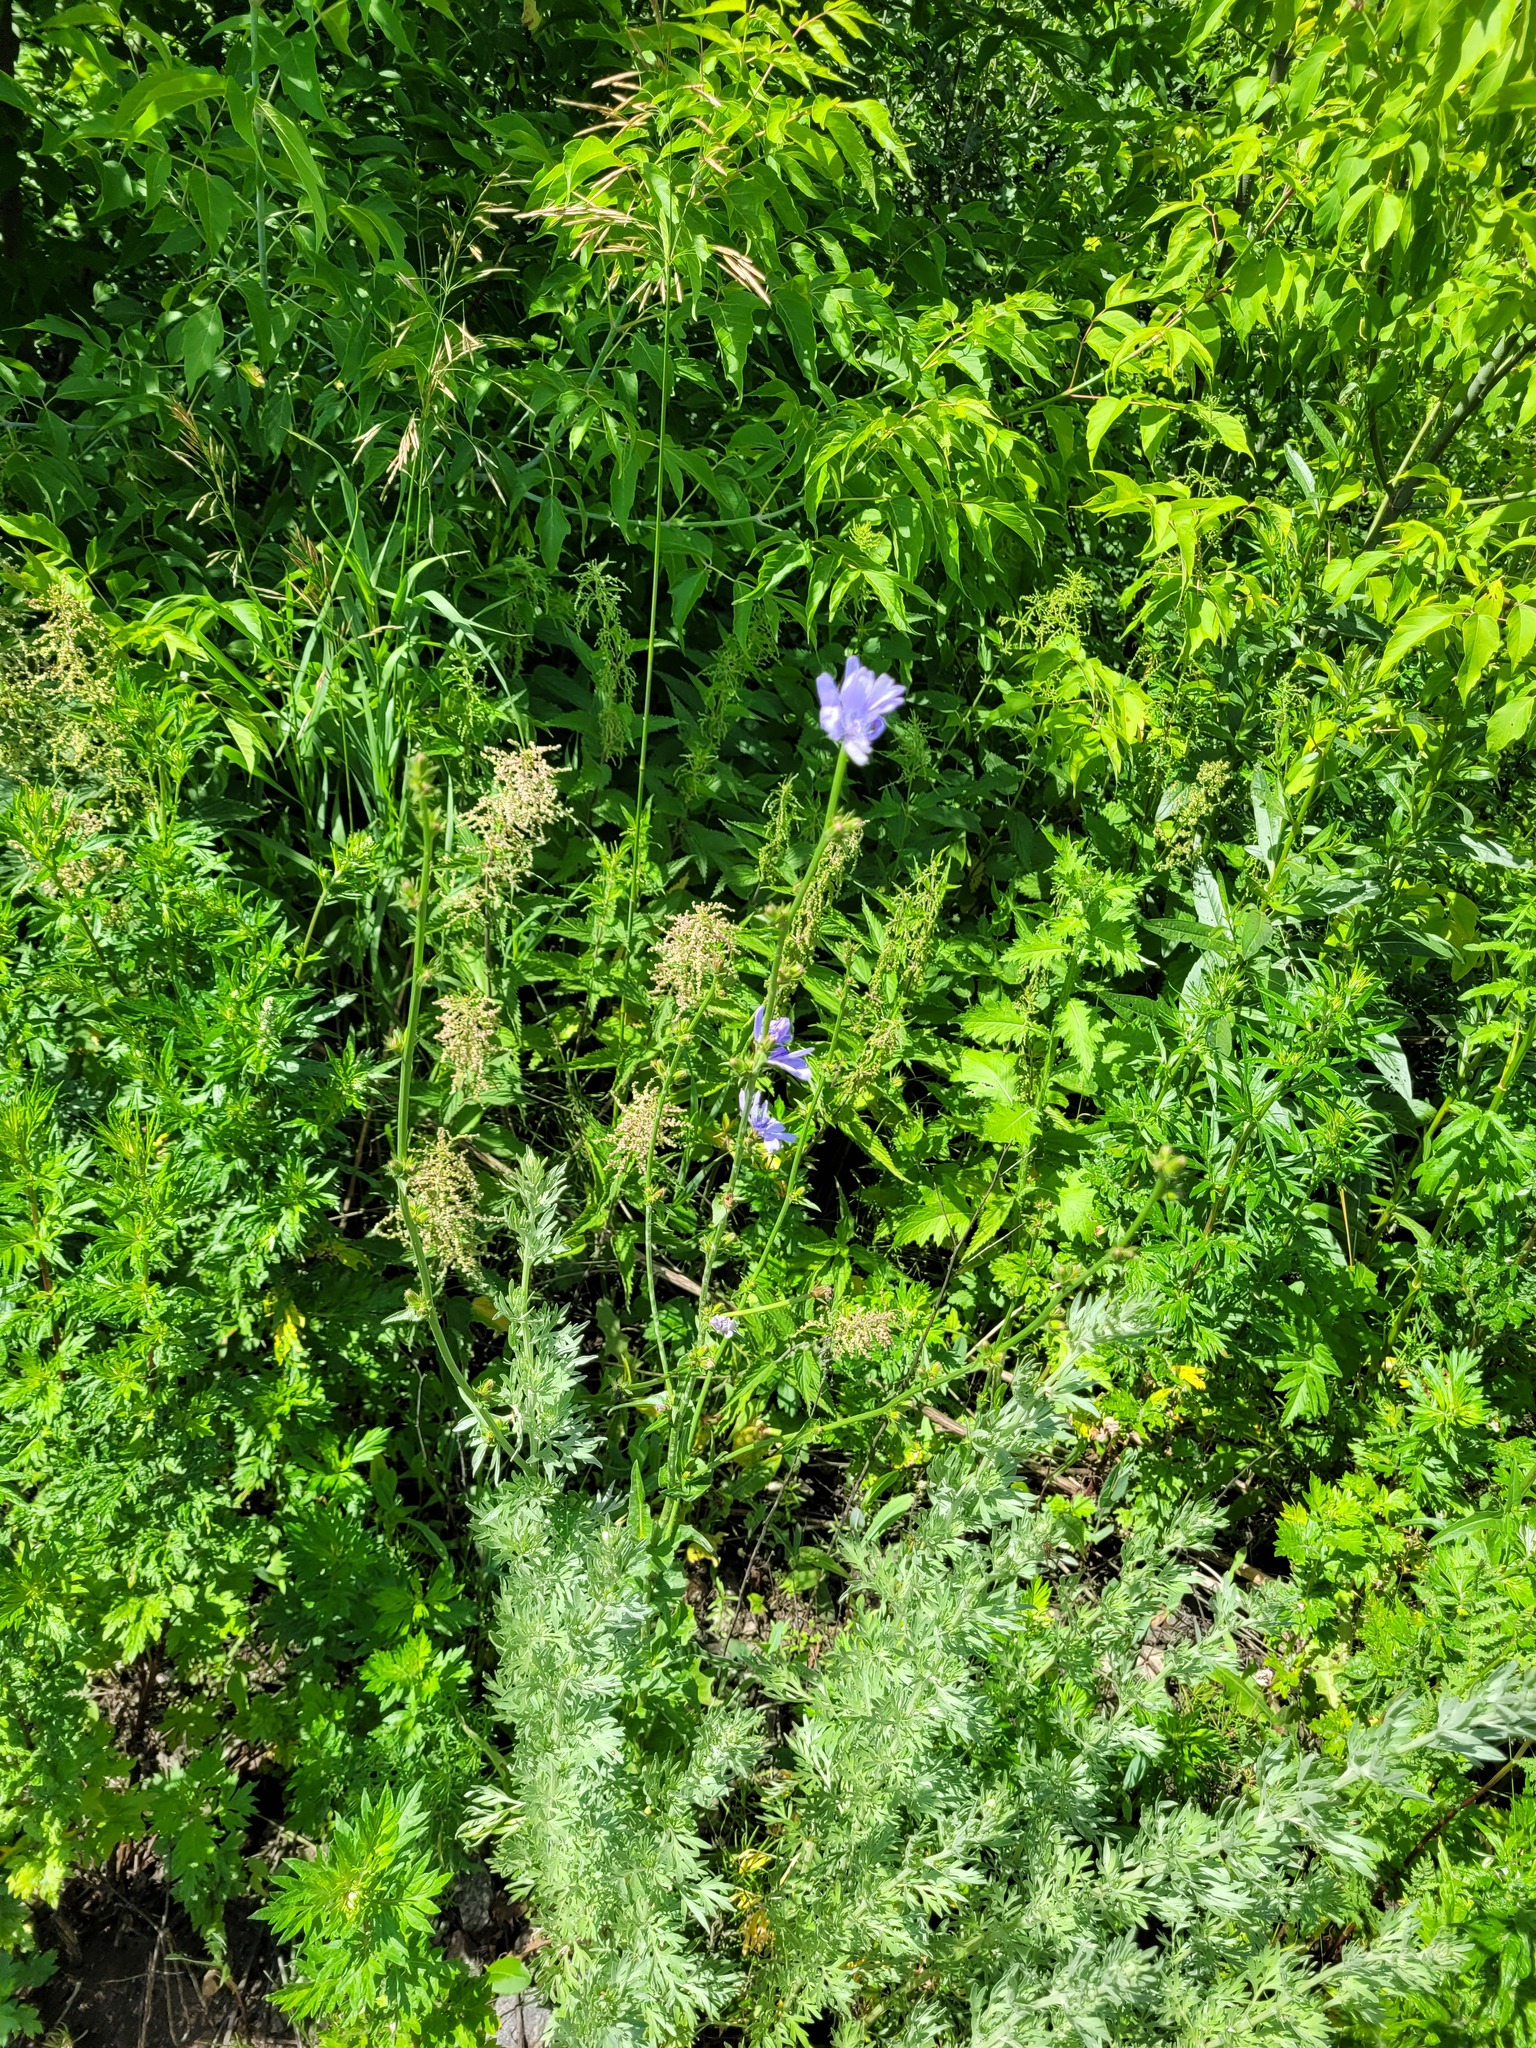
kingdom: Plantae
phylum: Tracheophyta
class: Magnoliopsida
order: Asterales
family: Asteraceae
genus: Cichorium
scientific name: Cichorium intybus
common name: Chicory
